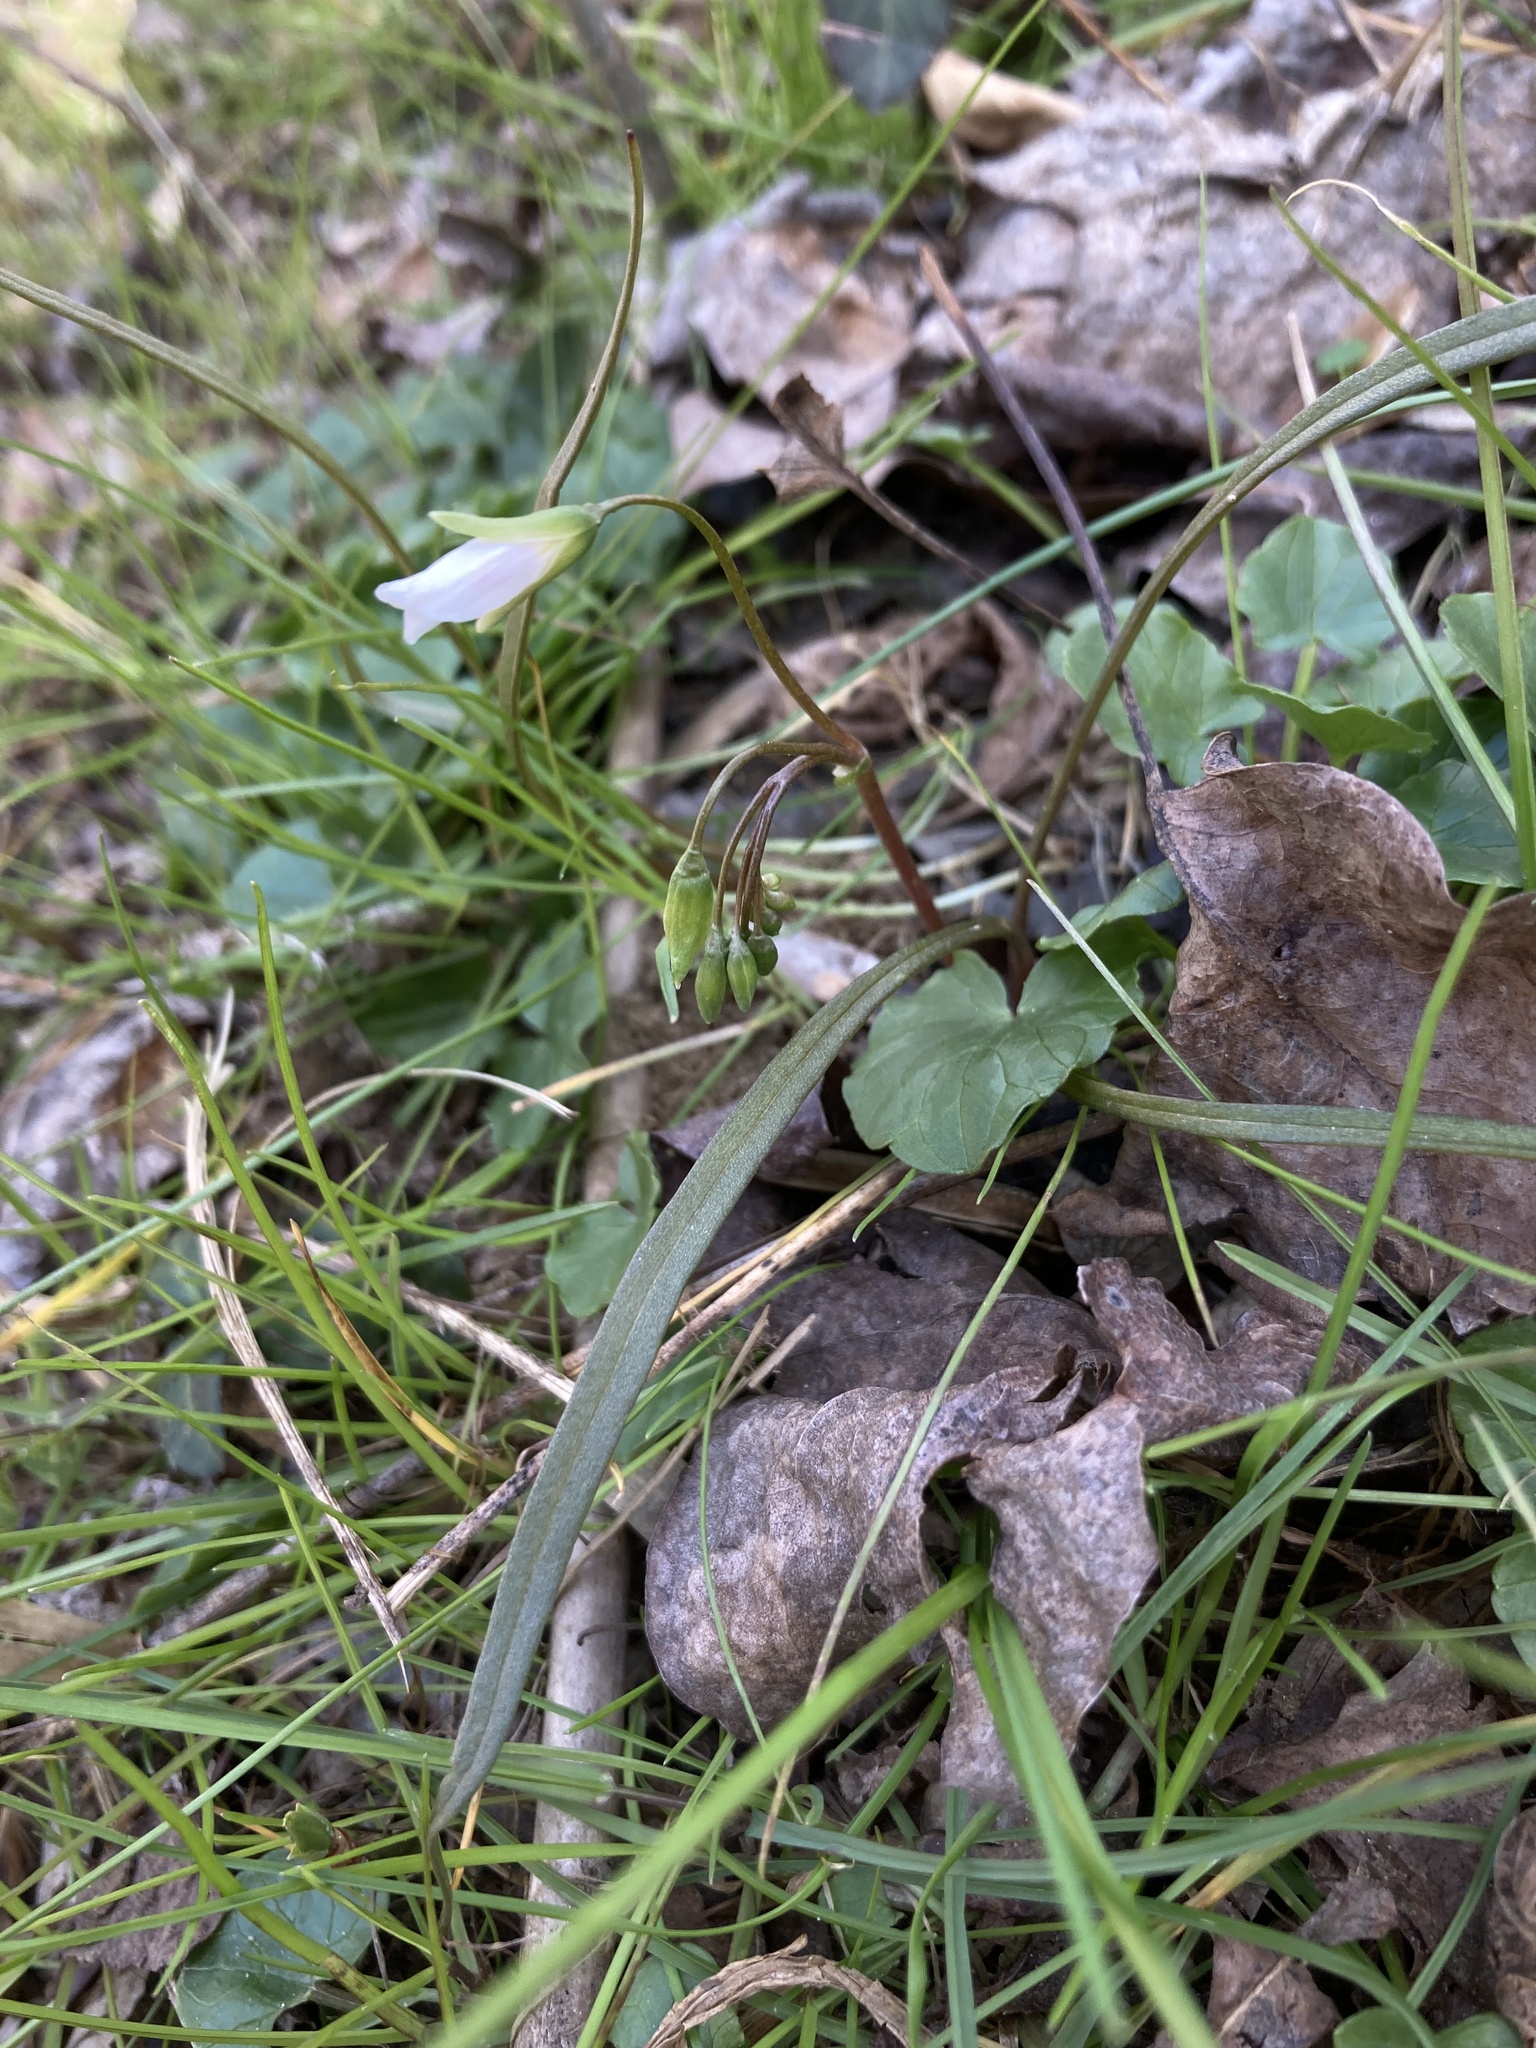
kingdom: Plantae
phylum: Tracheophyta
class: Magnoliopsida
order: Caryophyllales
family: Montiaceae
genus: Claytonia
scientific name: Claytonia virginica
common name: Virginia springbeauty
